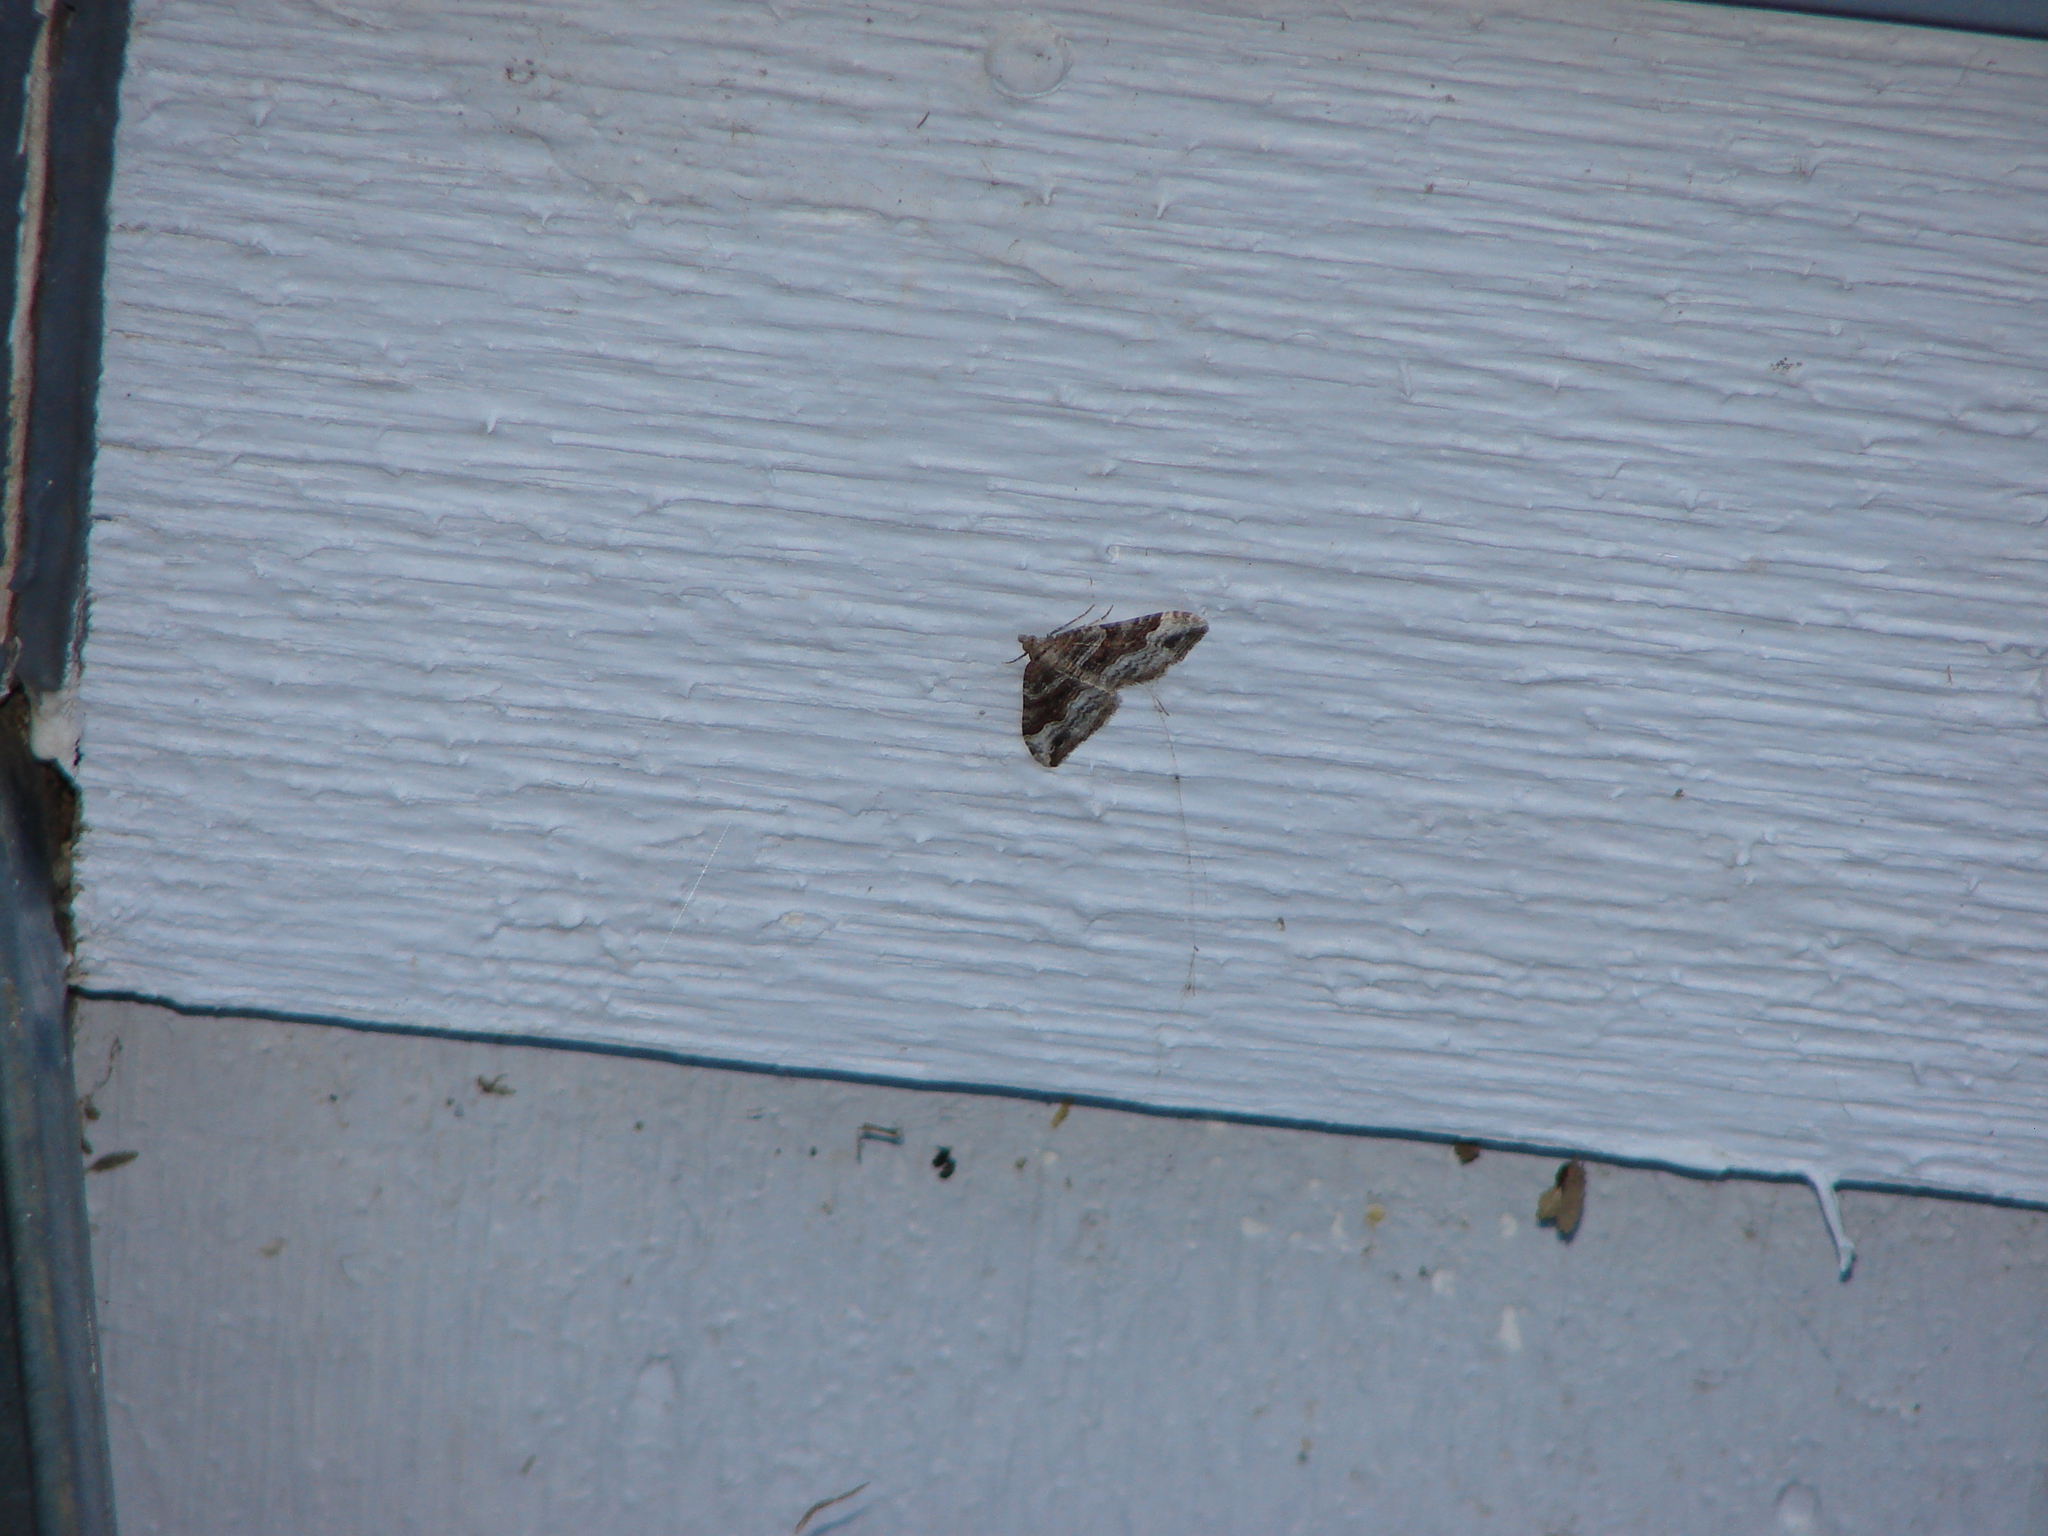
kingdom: Animalia
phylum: Arthropoda
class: Insecta
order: Lepidoptera
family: Geometridae
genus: Xanthorhoe
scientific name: Xanthorhoe defensaria
